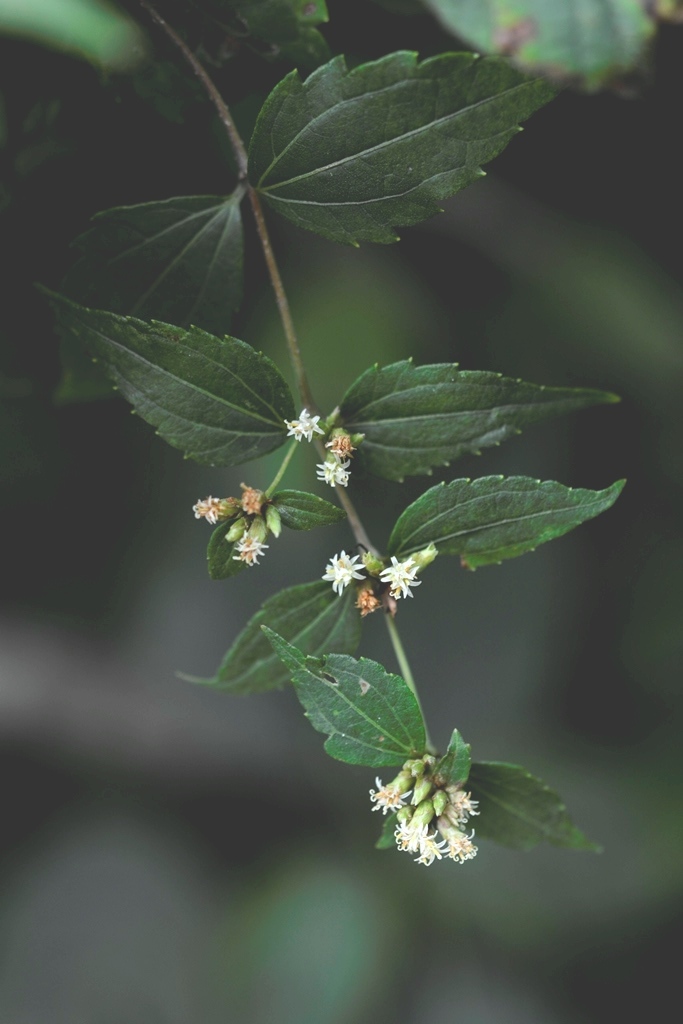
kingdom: Plantae
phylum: Tracheophyta
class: Magnoliopsida
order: Asterales
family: Asteraceae
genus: Calea
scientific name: Calea ternifolia
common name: Mexican calea
